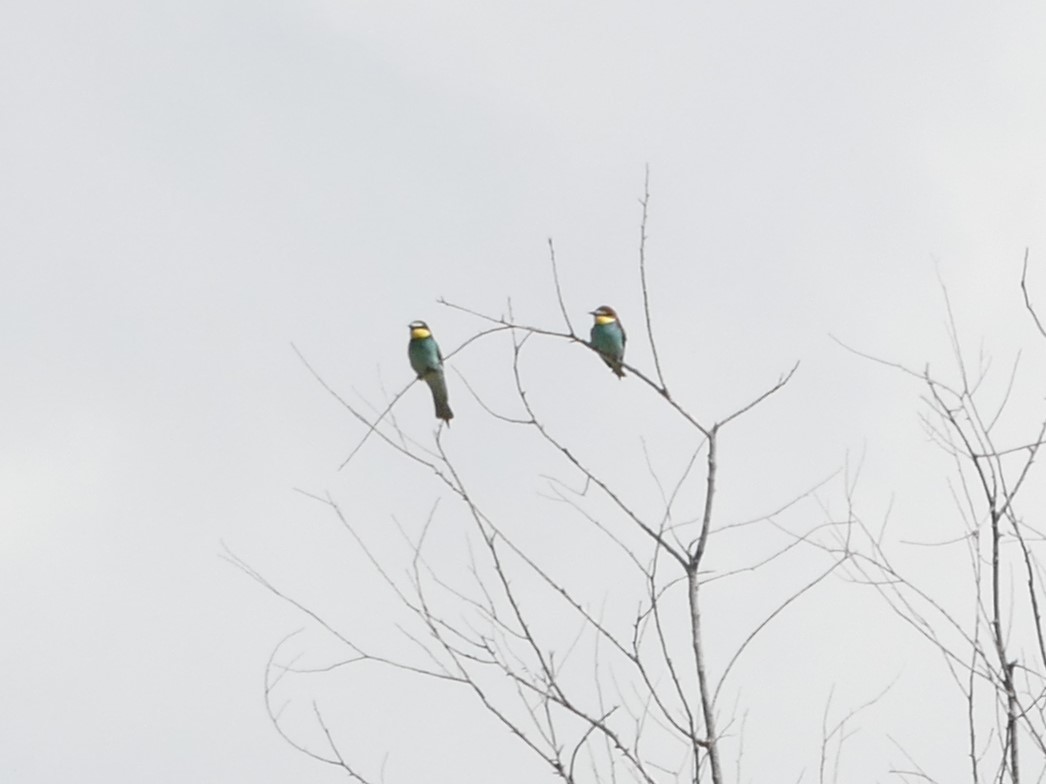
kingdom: Animalia
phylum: Chordata
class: Aves
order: Coraciiformes
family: Meropidae
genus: Merops
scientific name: Merops apiaster
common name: European bee-eater
